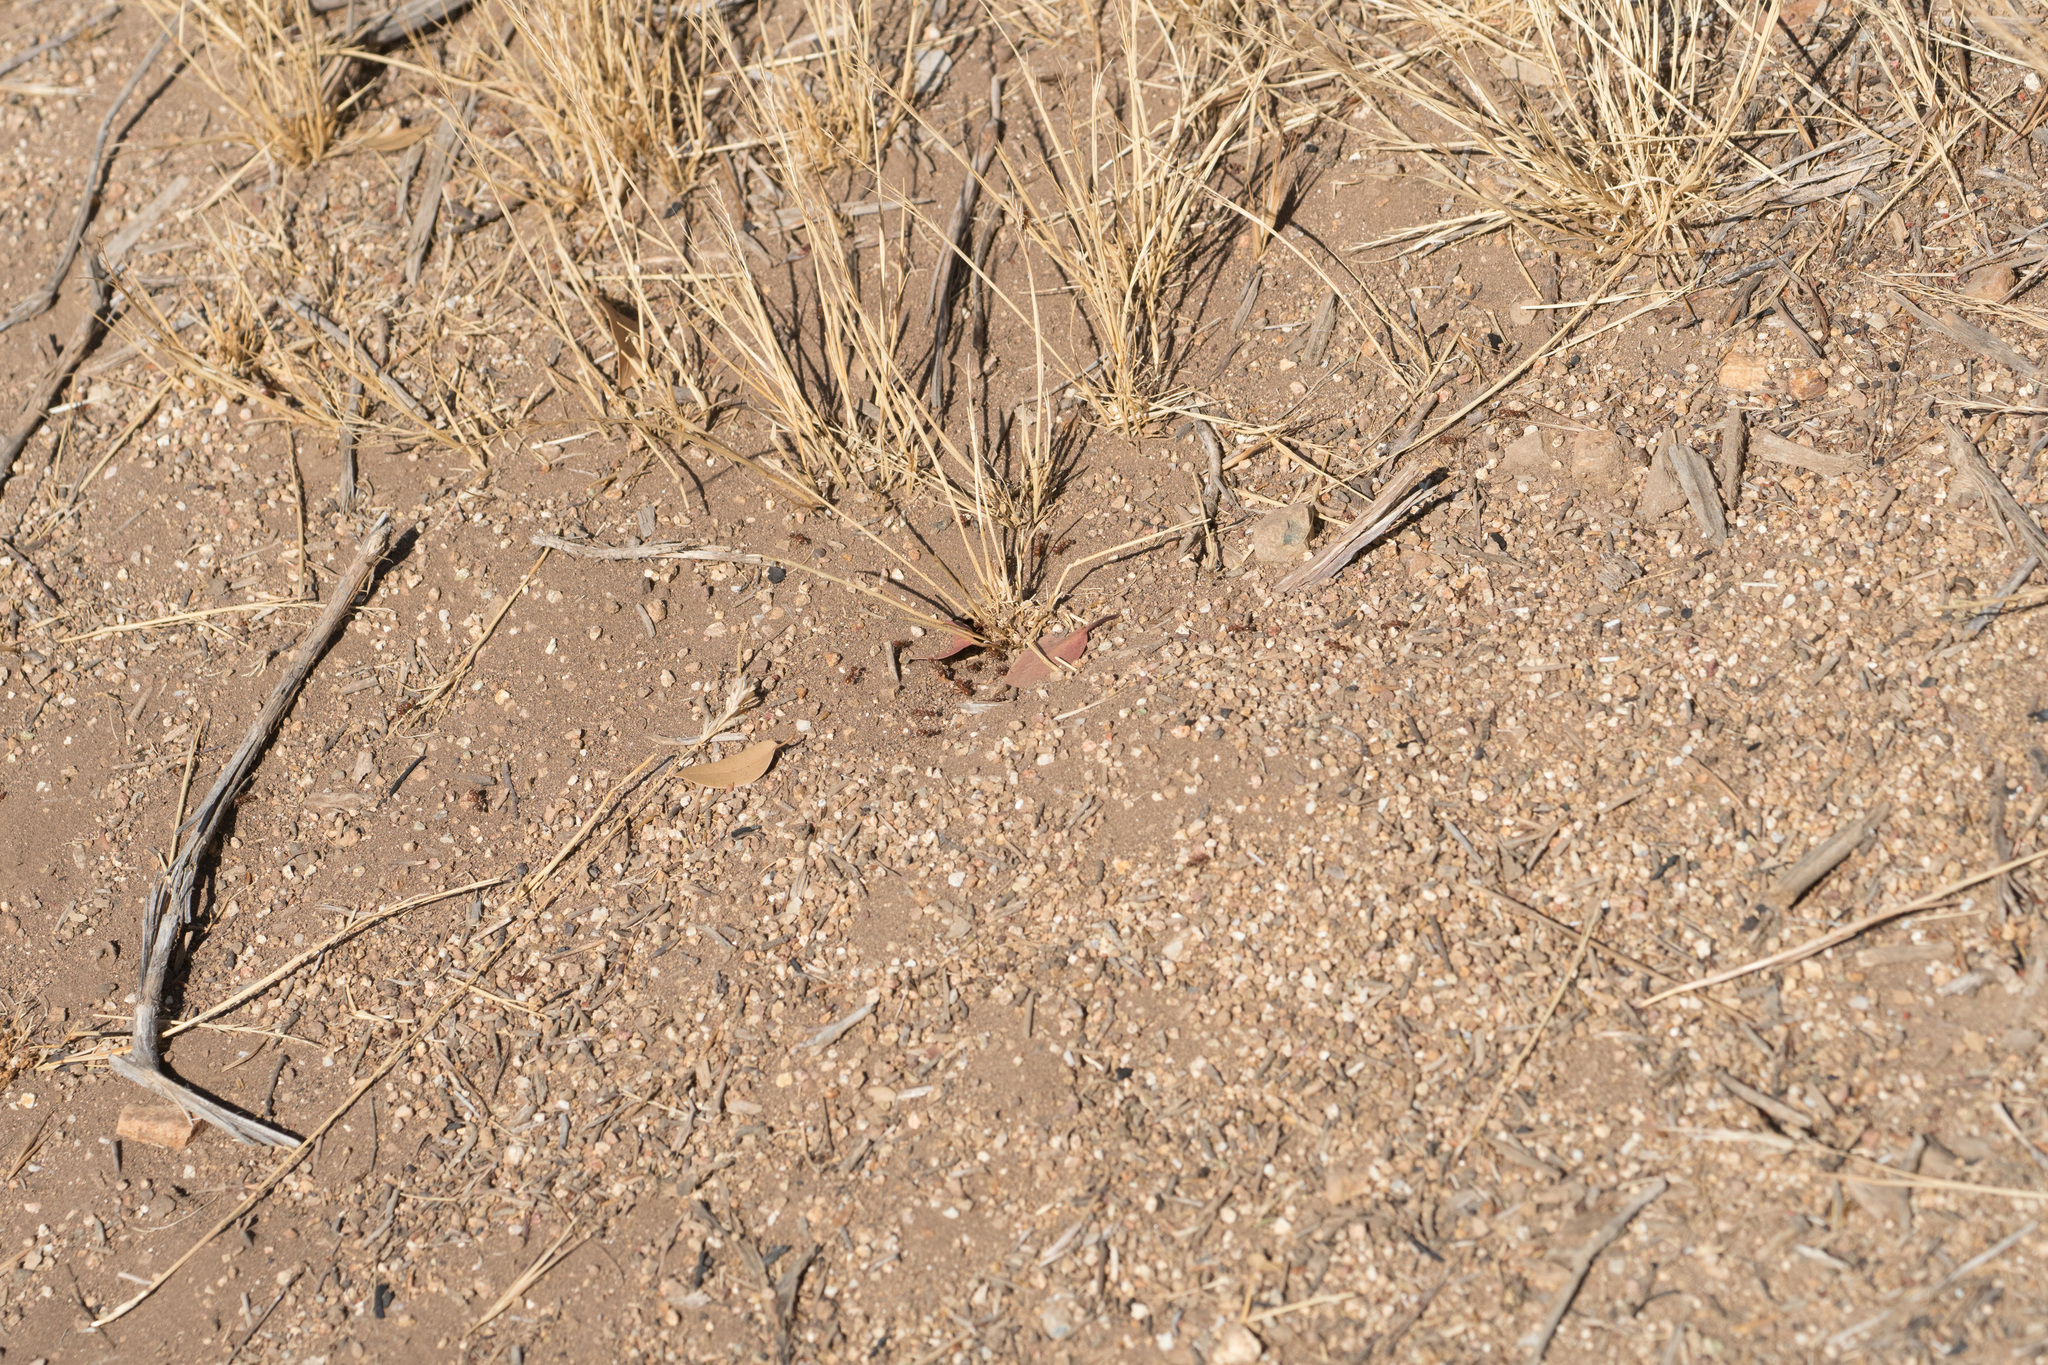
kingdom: Animalia
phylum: Arthropoda
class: Insecta
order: Hymenoptera
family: Formicidae
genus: Pogonomyrmex
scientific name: Pogonomyrmex subnitidus
